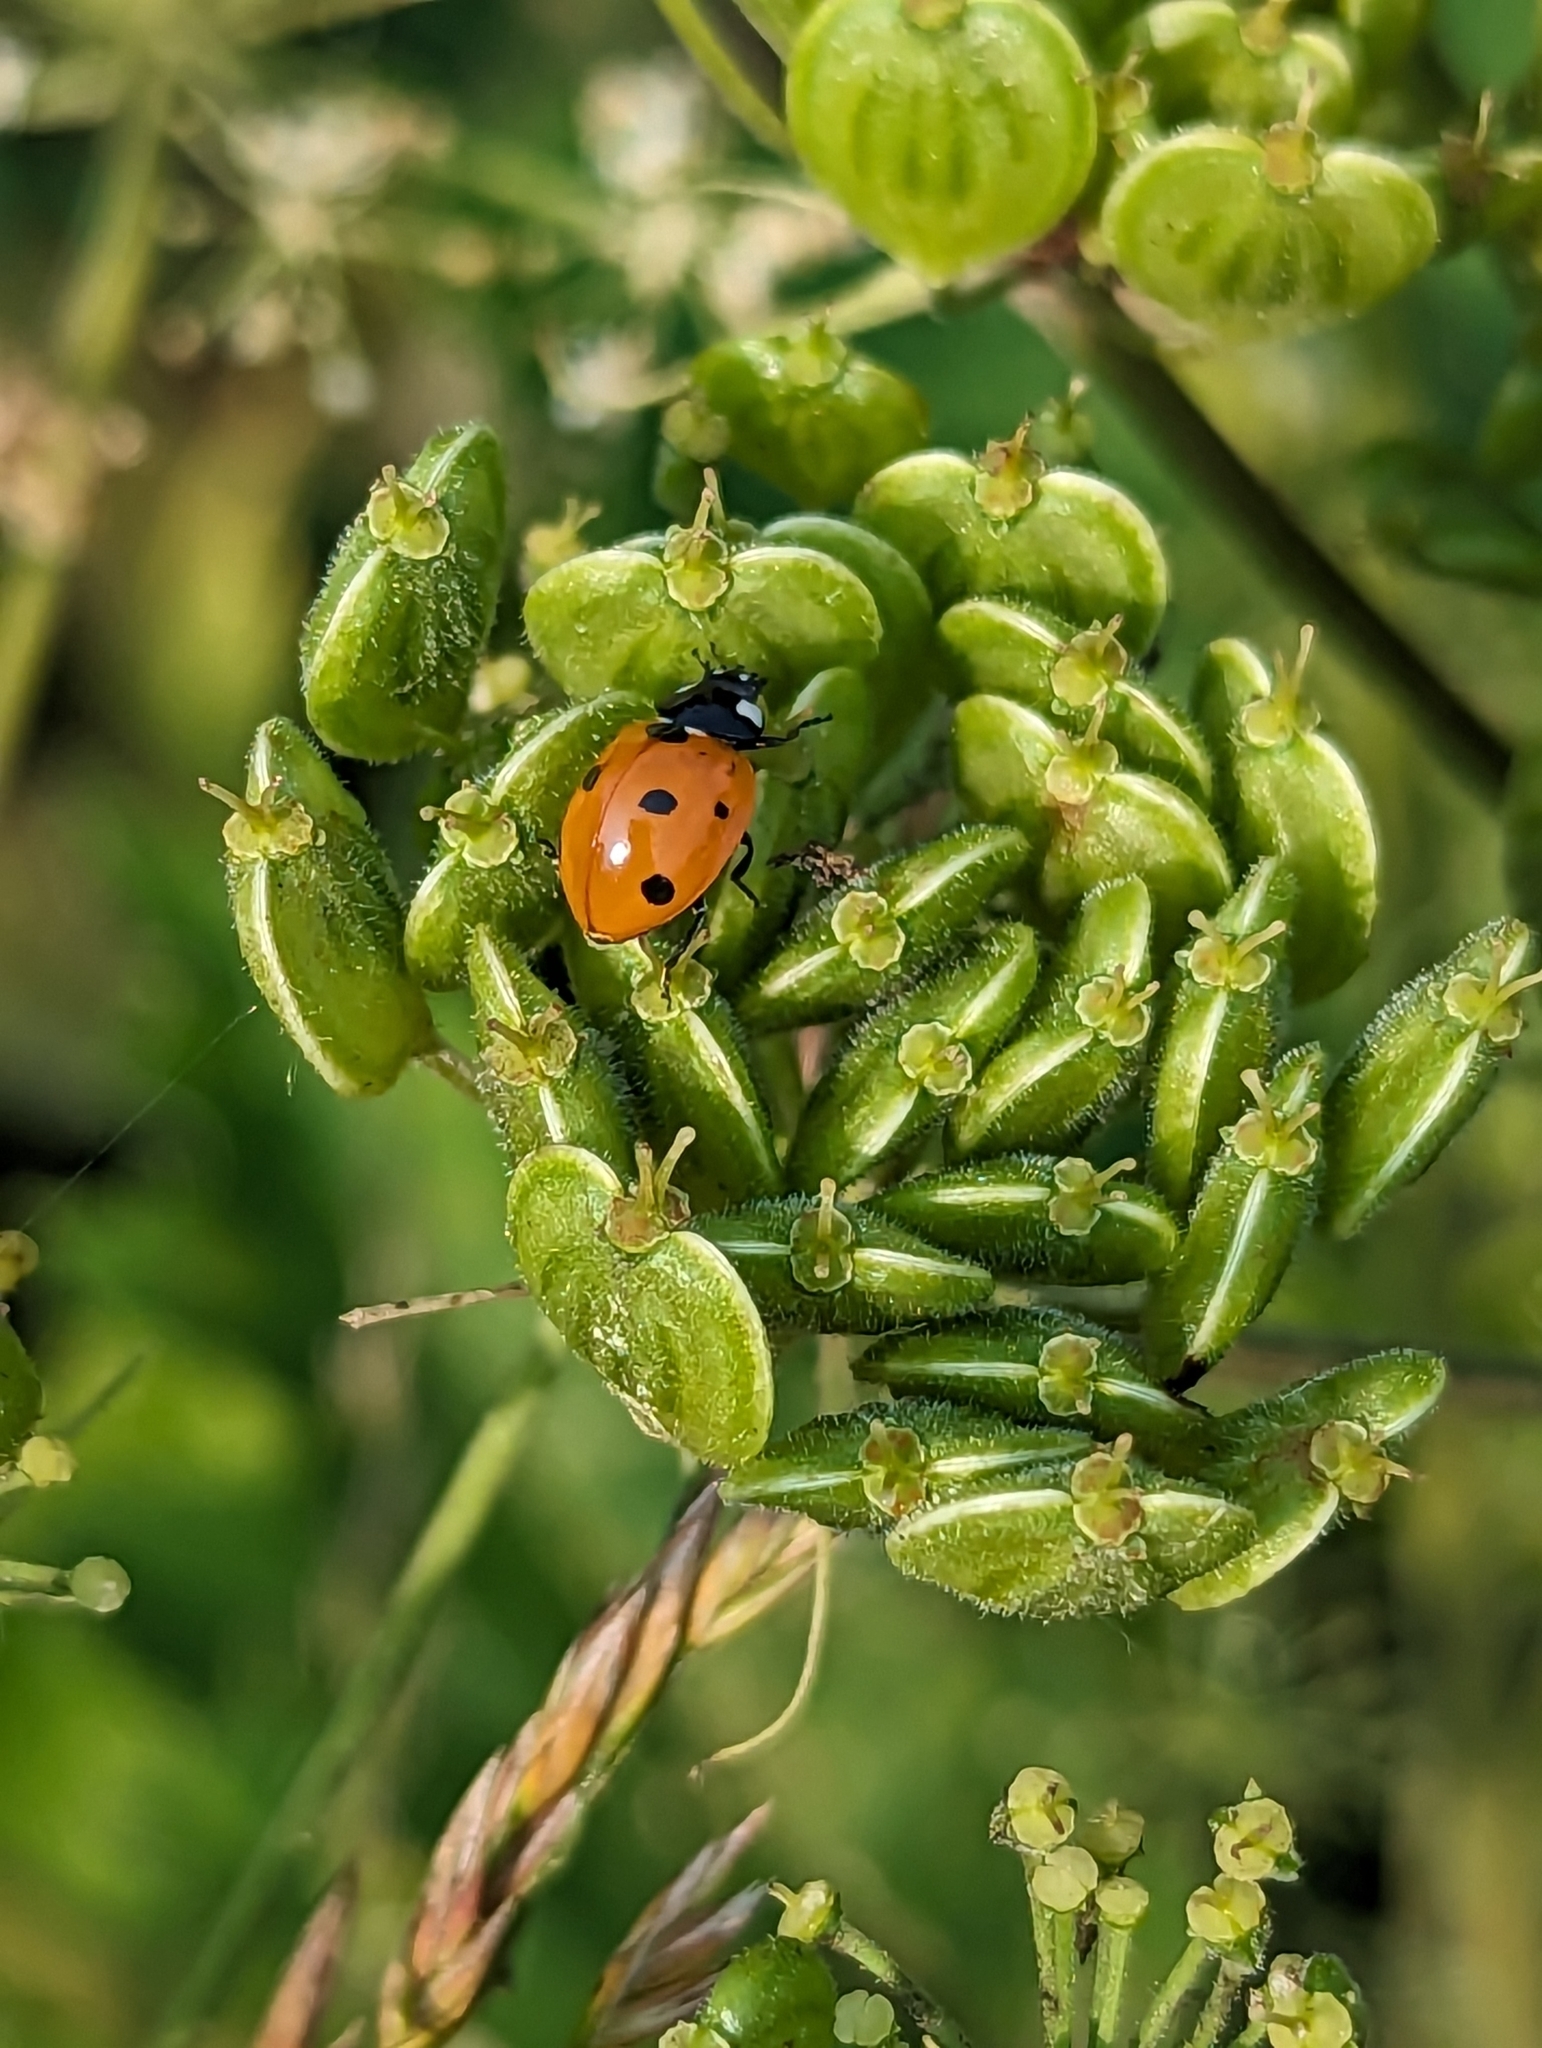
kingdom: Animalia
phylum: Arthropoda
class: Insecta
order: Coleoptera
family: Coccinellidae
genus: Coccinella
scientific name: Coccinella septempunctata
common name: Sevenspotted lady beetle
